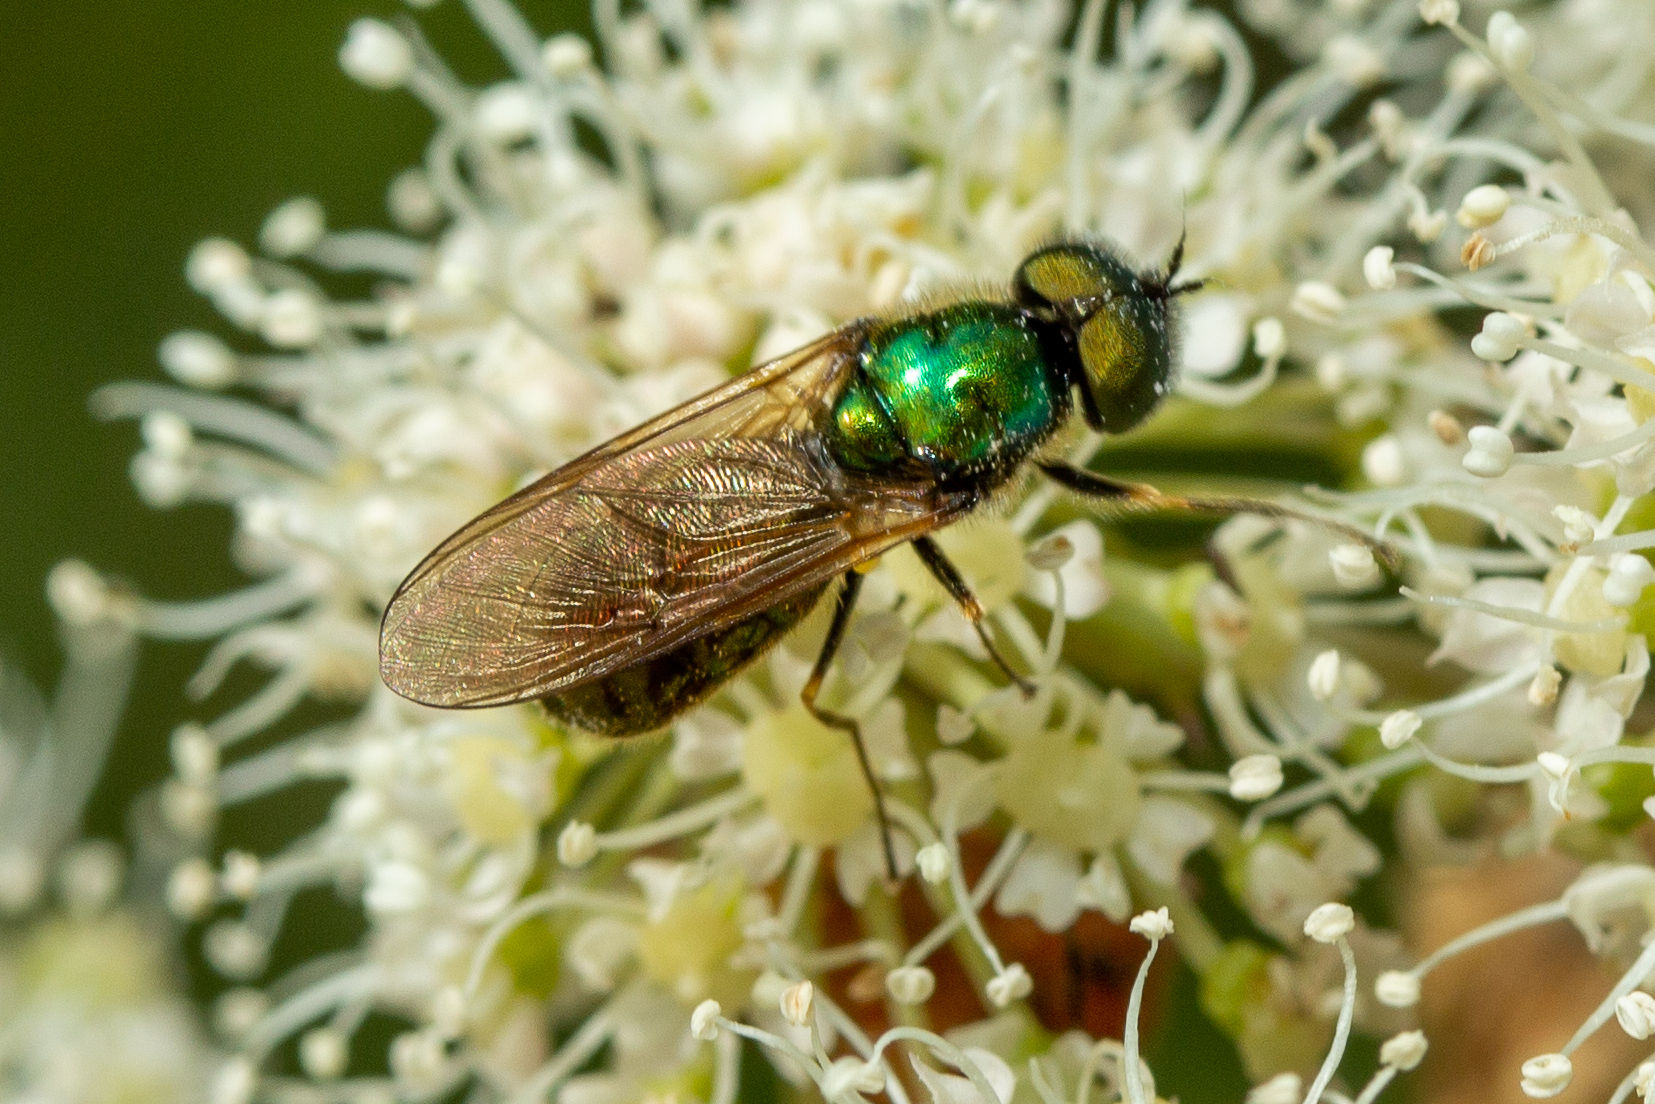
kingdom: Animalia
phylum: Arthropoda
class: Insecta
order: Diptera
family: Stratiomyidae
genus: Chloromyia
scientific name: Chloromyia formosa
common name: Soldier fly
